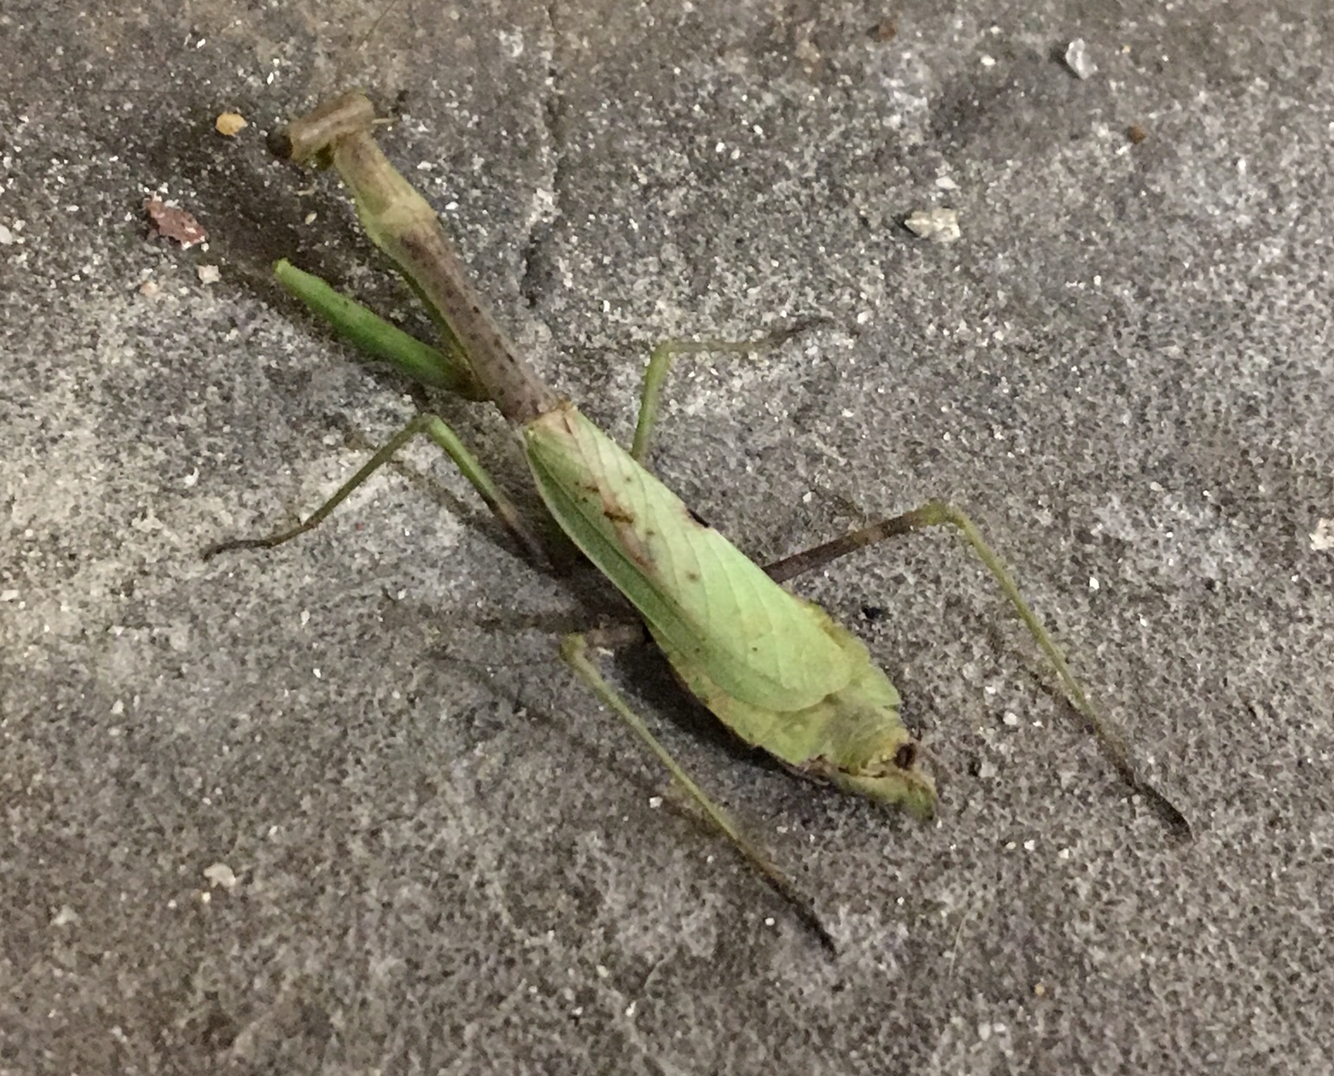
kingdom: Animalia
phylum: Arthropoda
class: Insecta
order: Mantodea
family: Mantidae
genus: Stagmomantis
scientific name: Stagmomantis carolina
